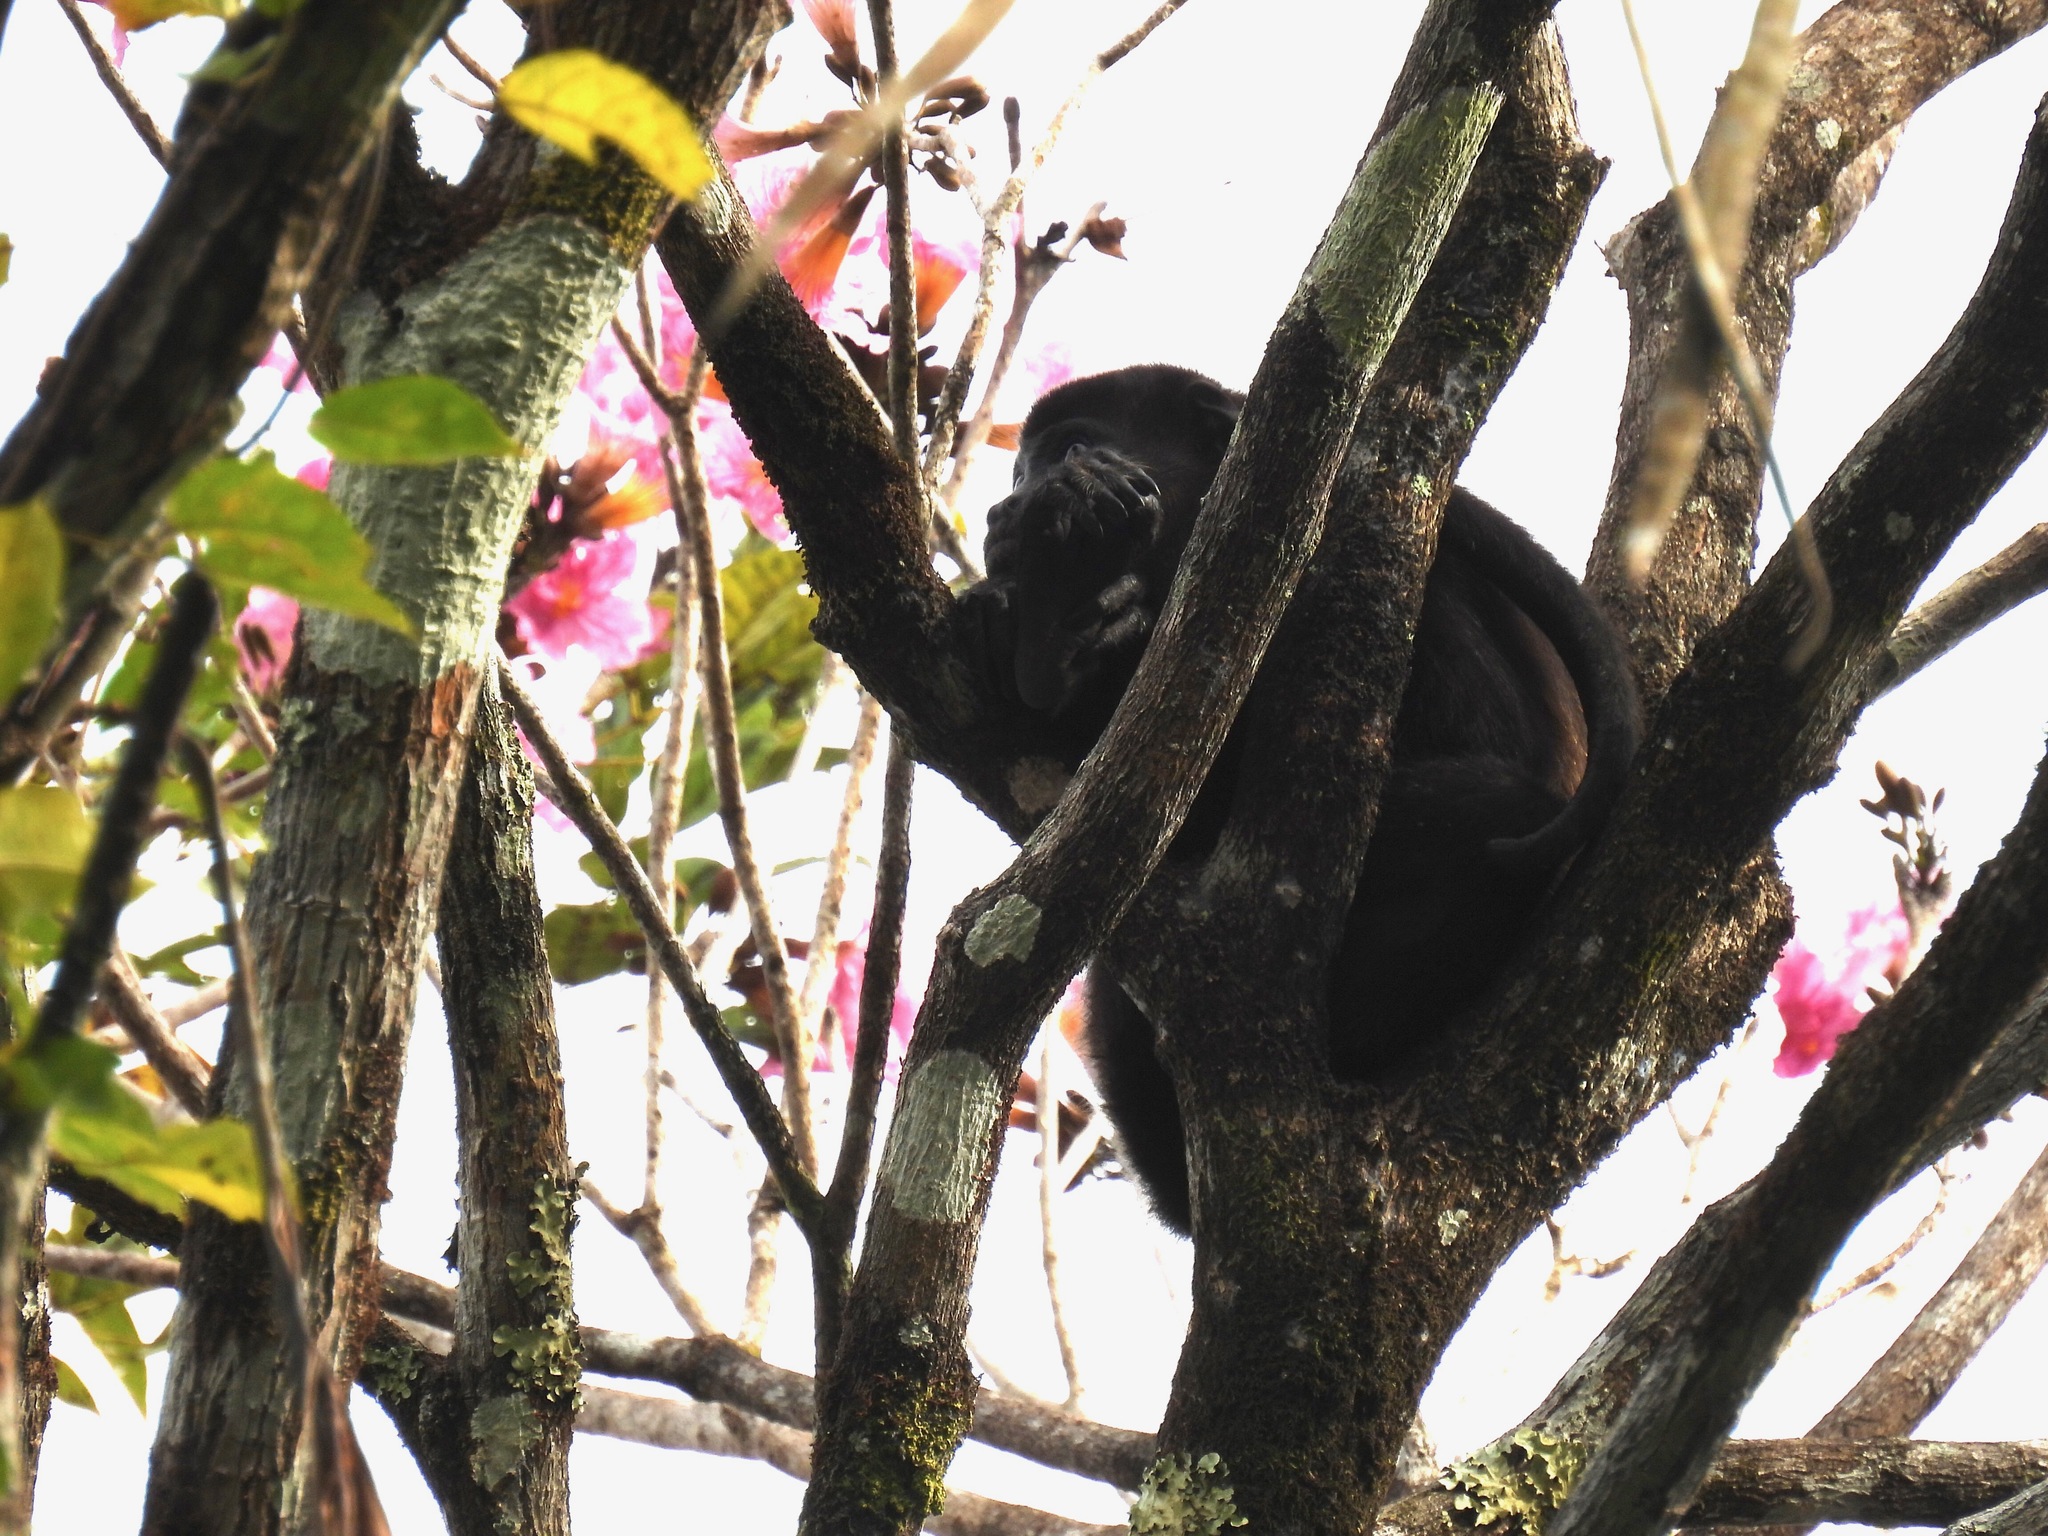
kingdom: Animalia
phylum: Chordata
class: Mammalia
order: Primates
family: Atelidae
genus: Alouatta
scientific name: Alouatta palliata
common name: Mantled howler
